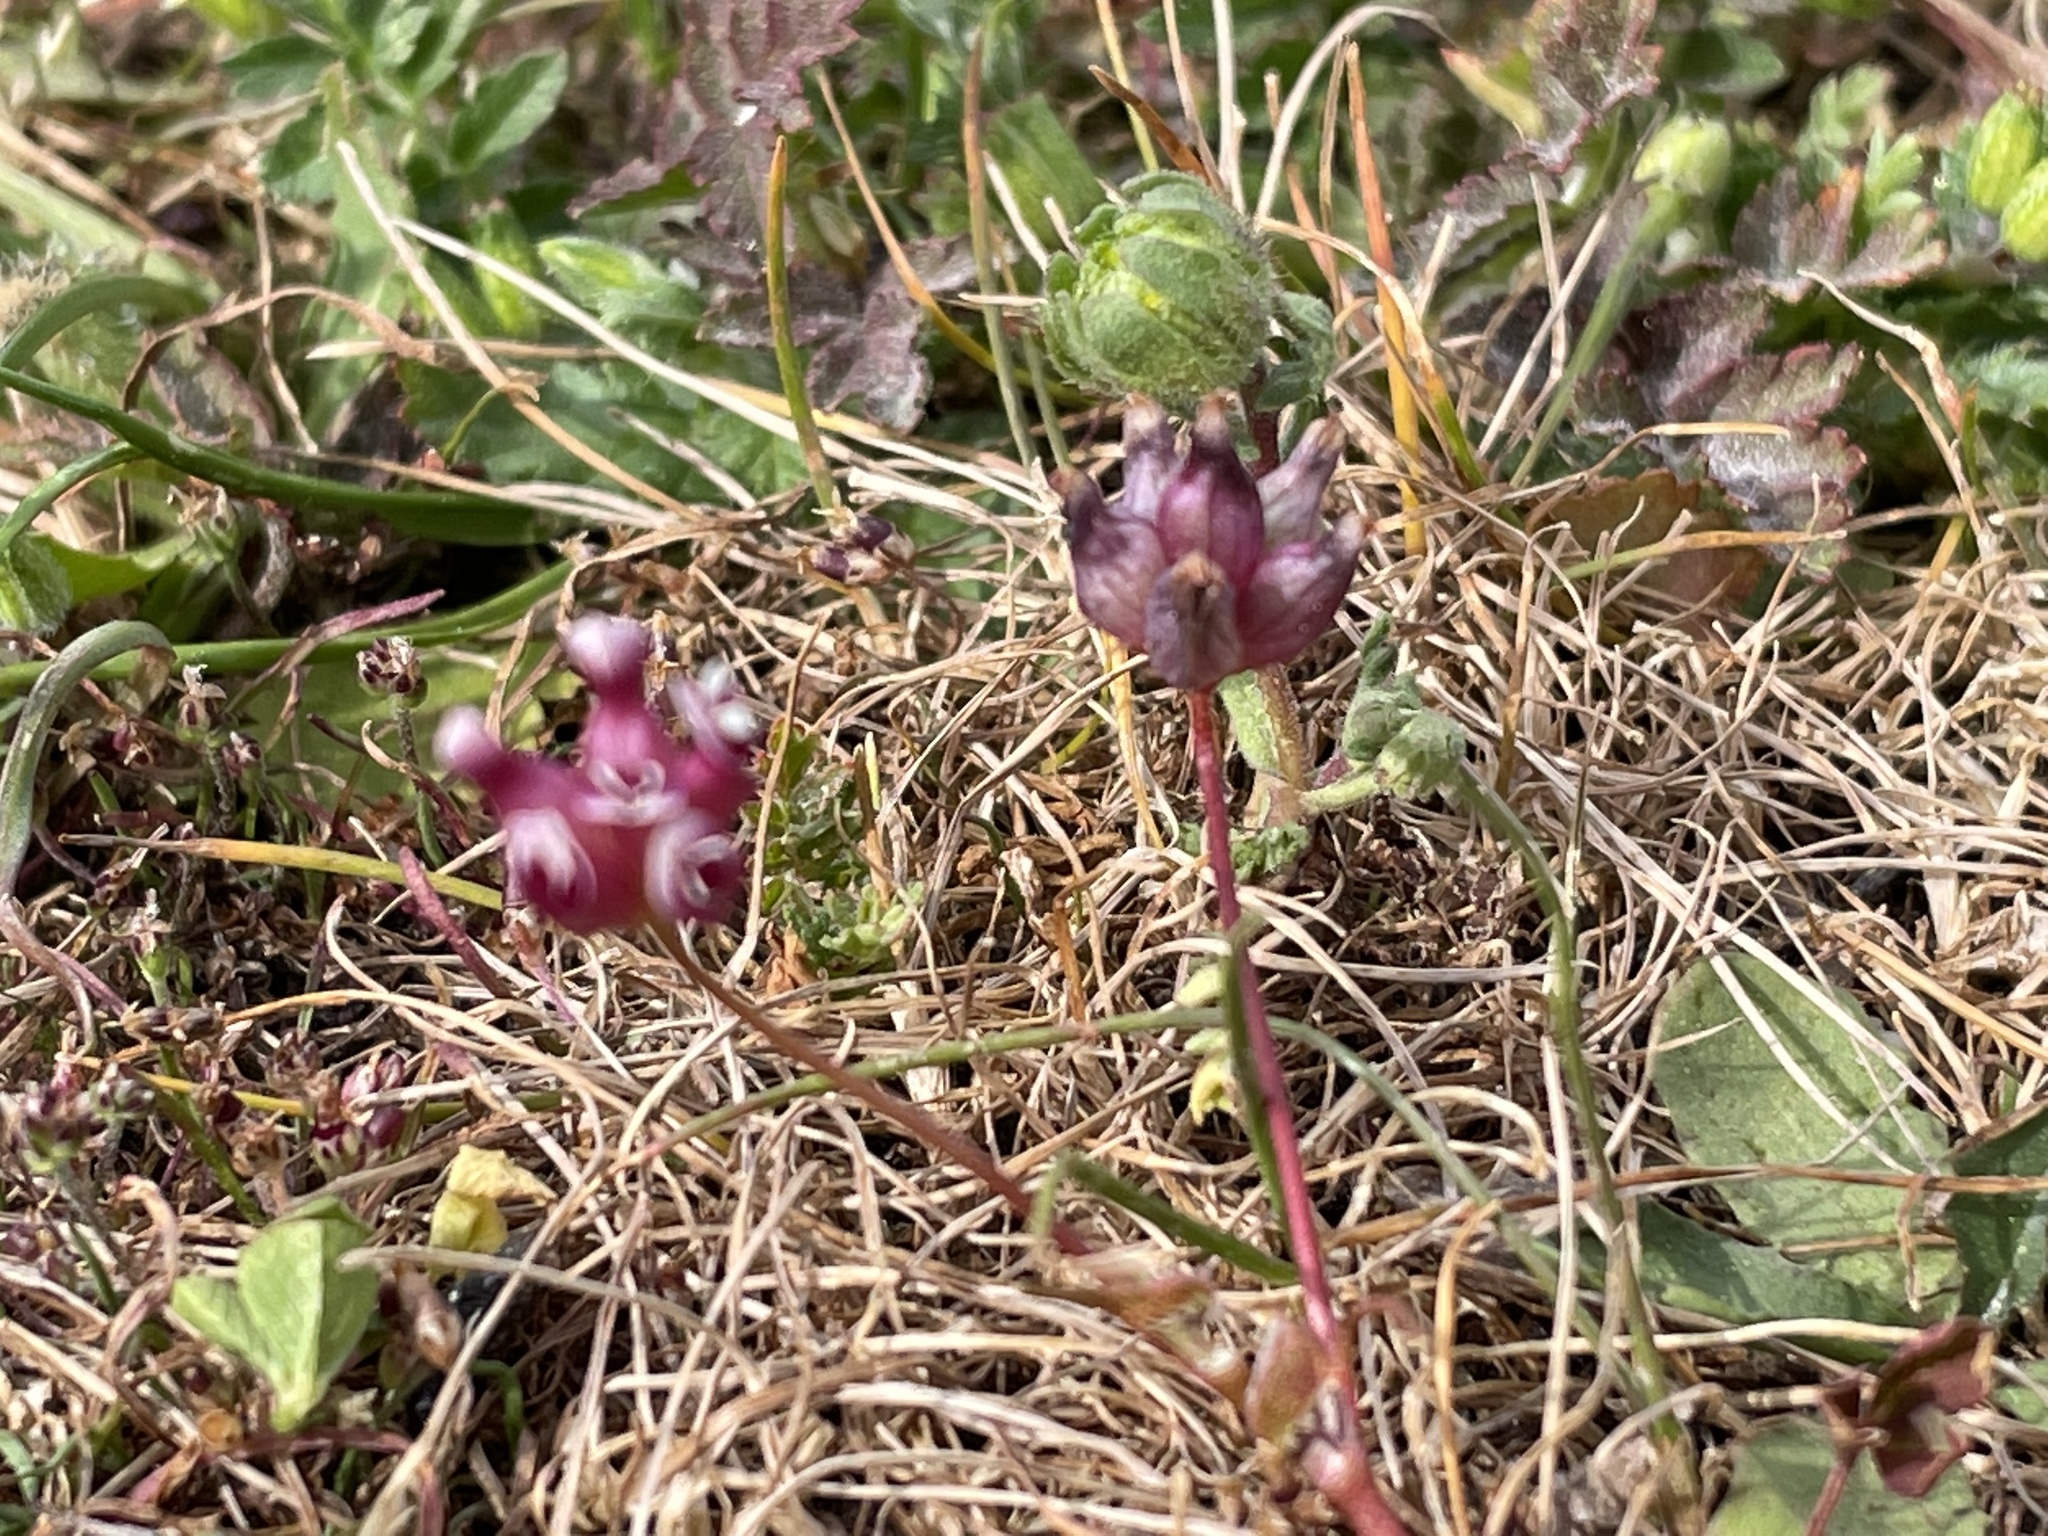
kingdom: Plantae
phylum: Tracheophyta
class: Magnoliopsida
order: Fabales
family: Fabaceae
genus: Trifolium
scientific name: Trifolium depauperatum
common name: Poverty clover
